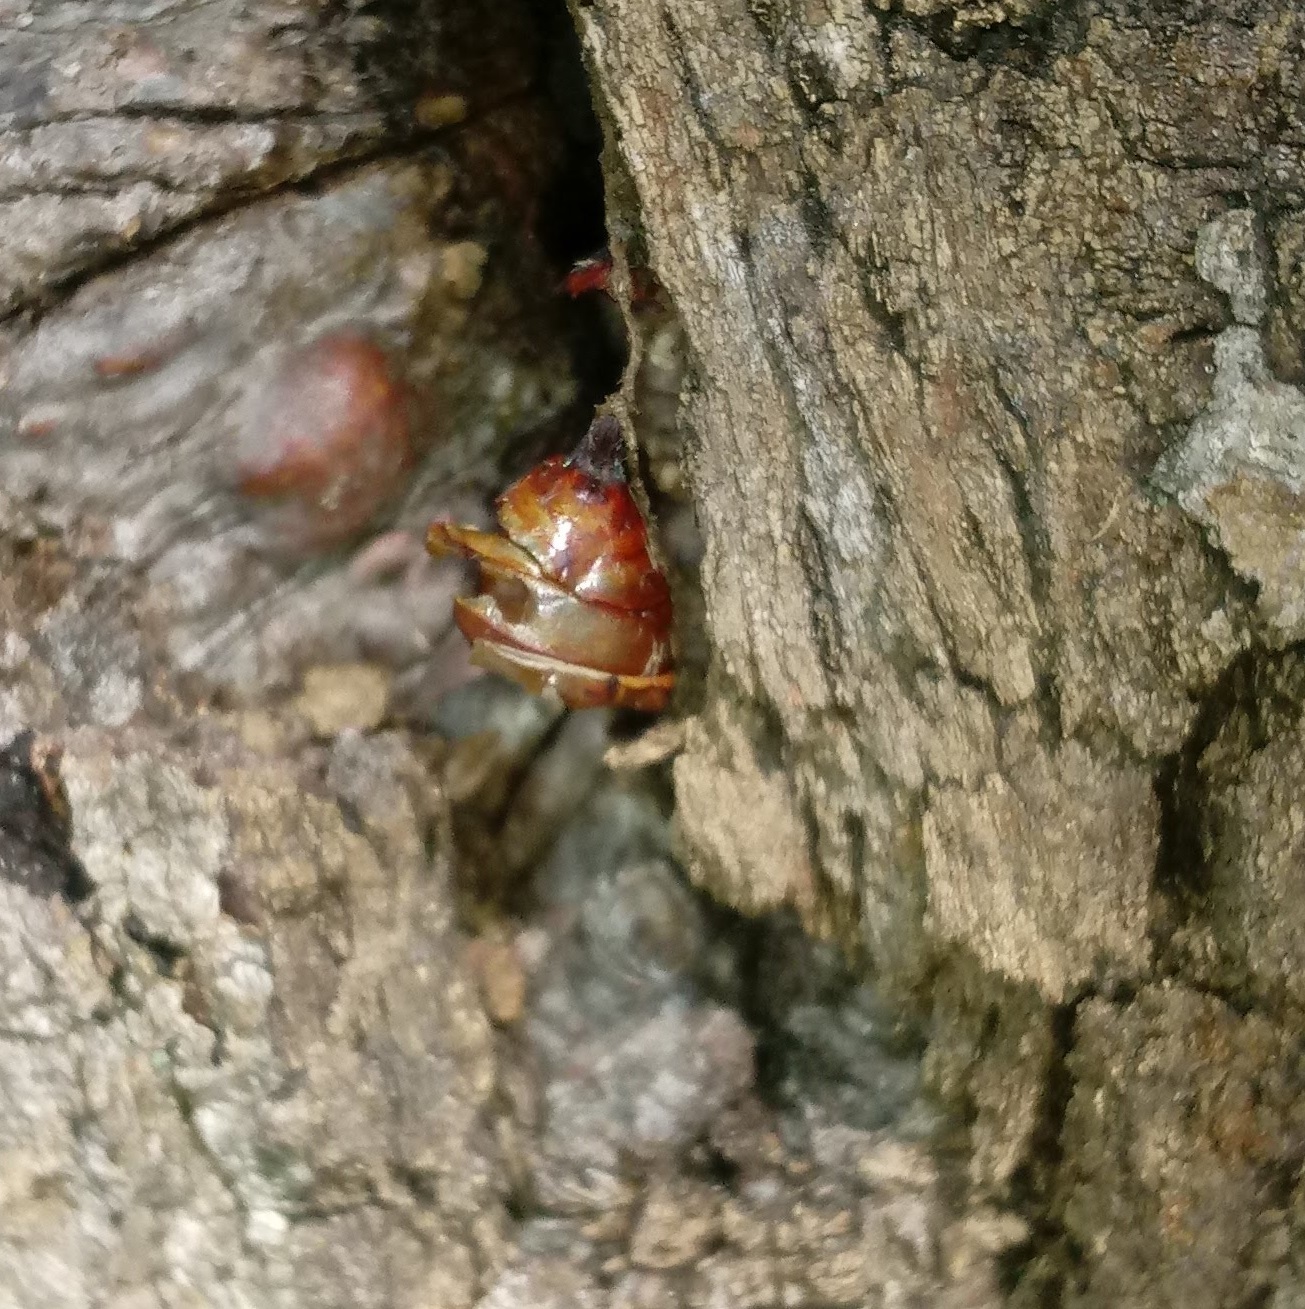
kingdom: Animalia
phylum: Arthropoda
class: Insecta
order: Lepidoptera
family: Erebidae
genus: Lymantria
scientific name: Lymantria dispar
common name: Gypsy moth
